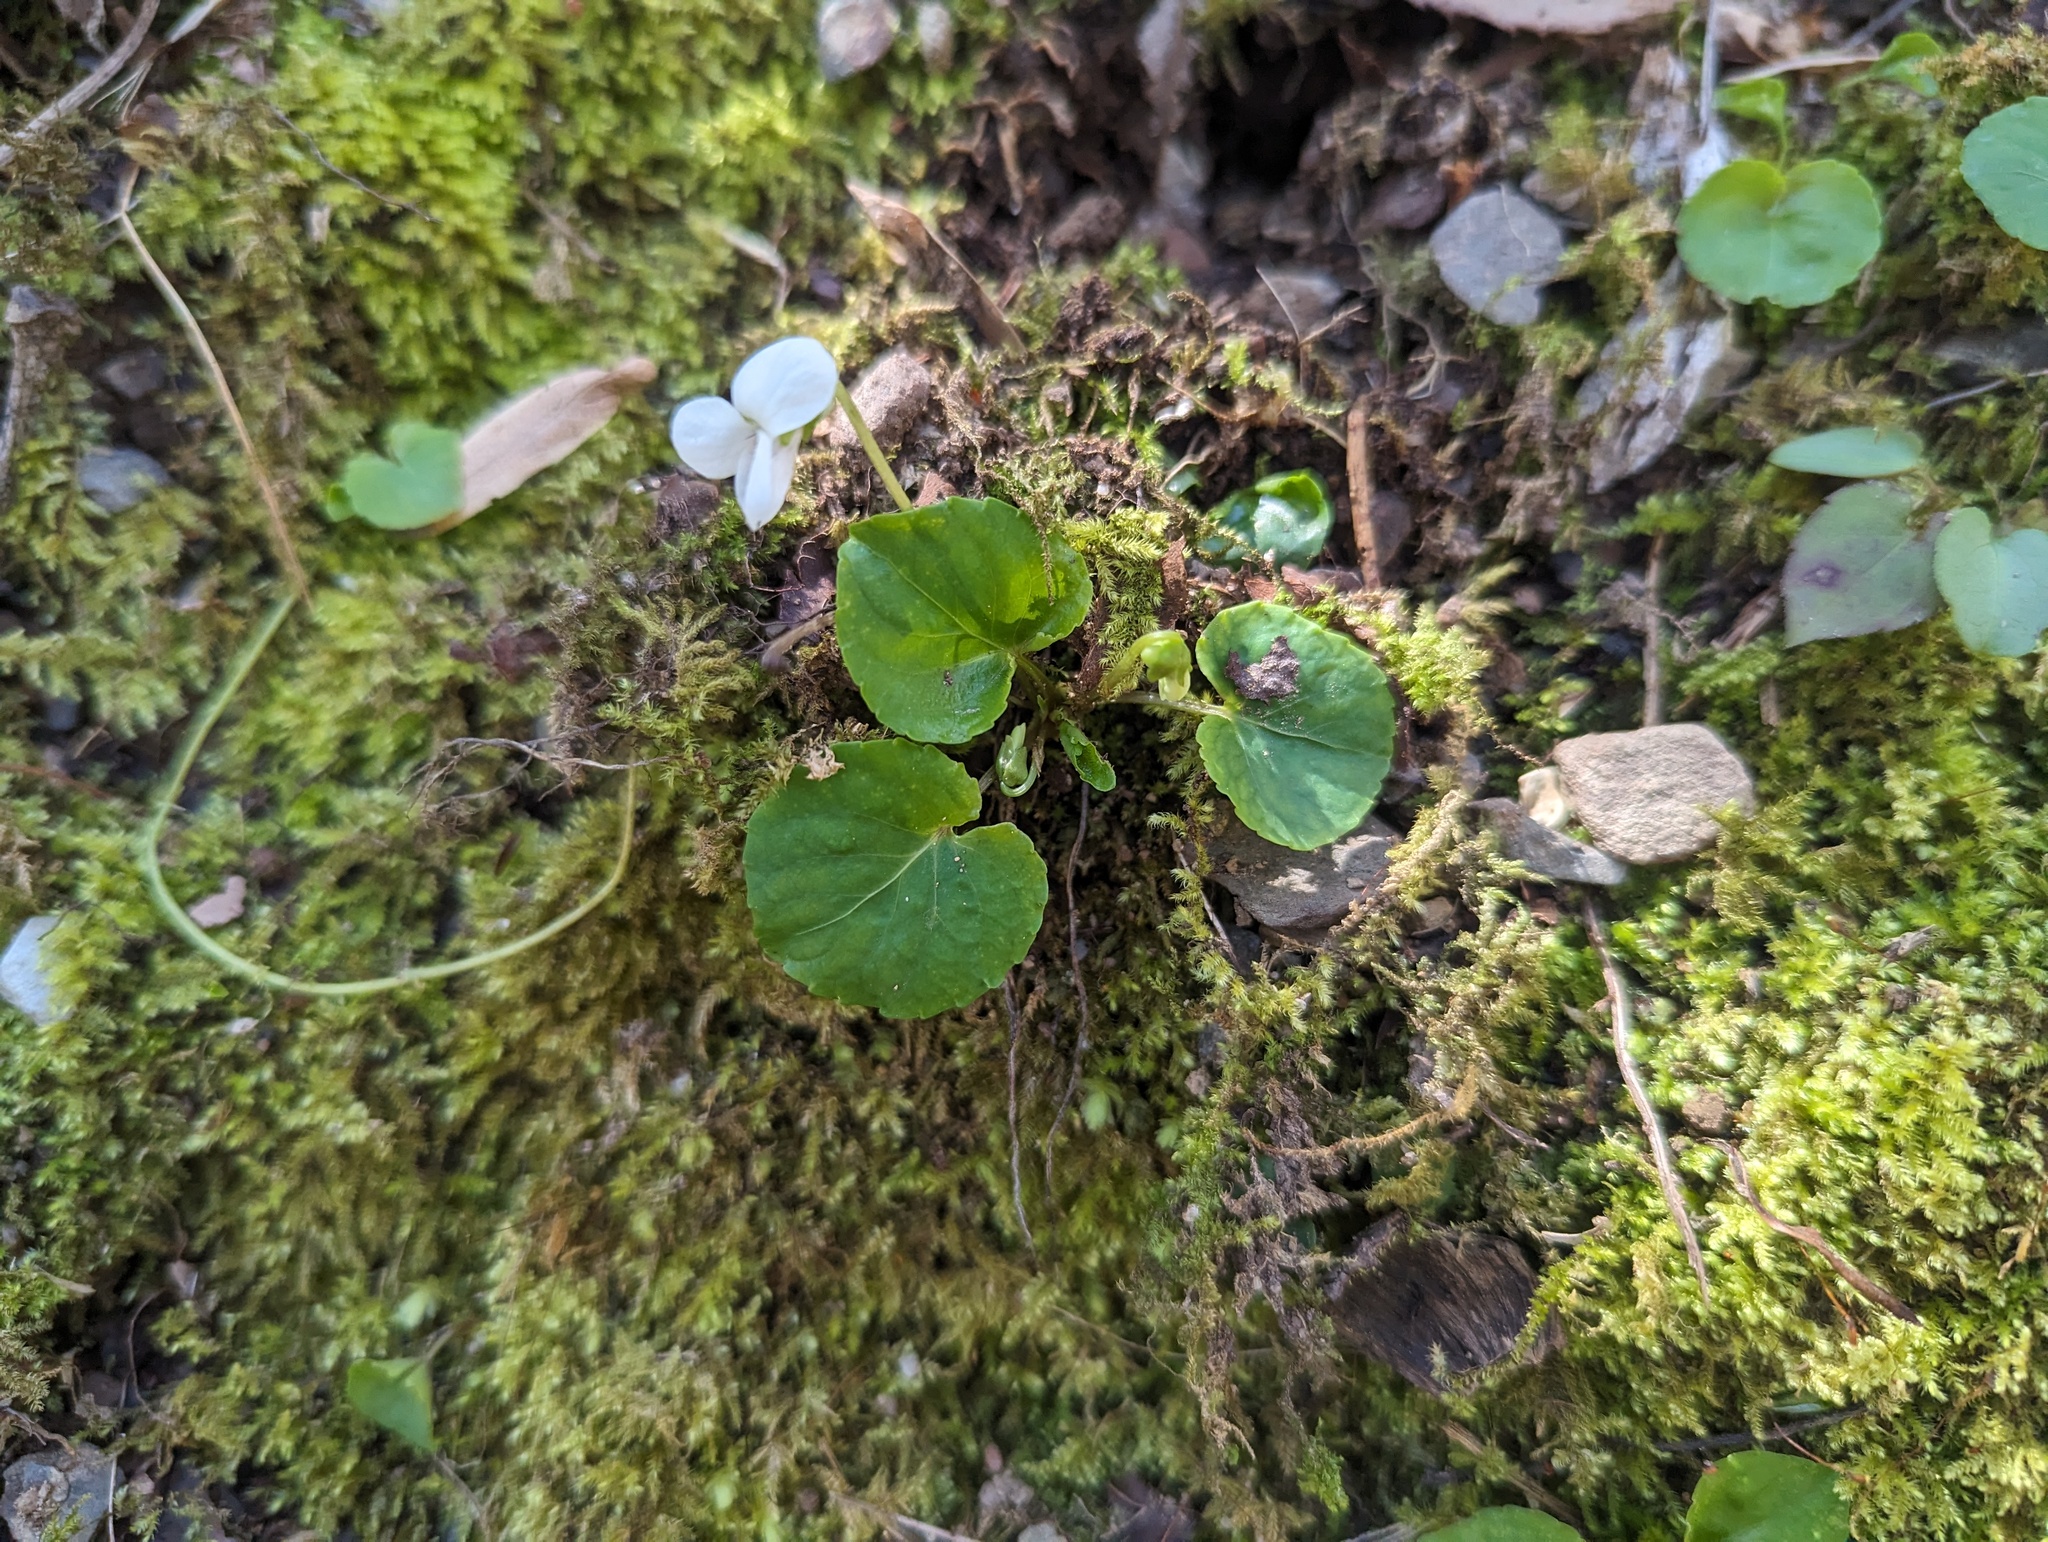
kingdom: Plantae
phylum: Tracheophyta
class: Magnoliopsida
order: Malpighiales
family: Violaceae
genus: Viola
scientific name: Viola blanda
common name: Sweet white violet
